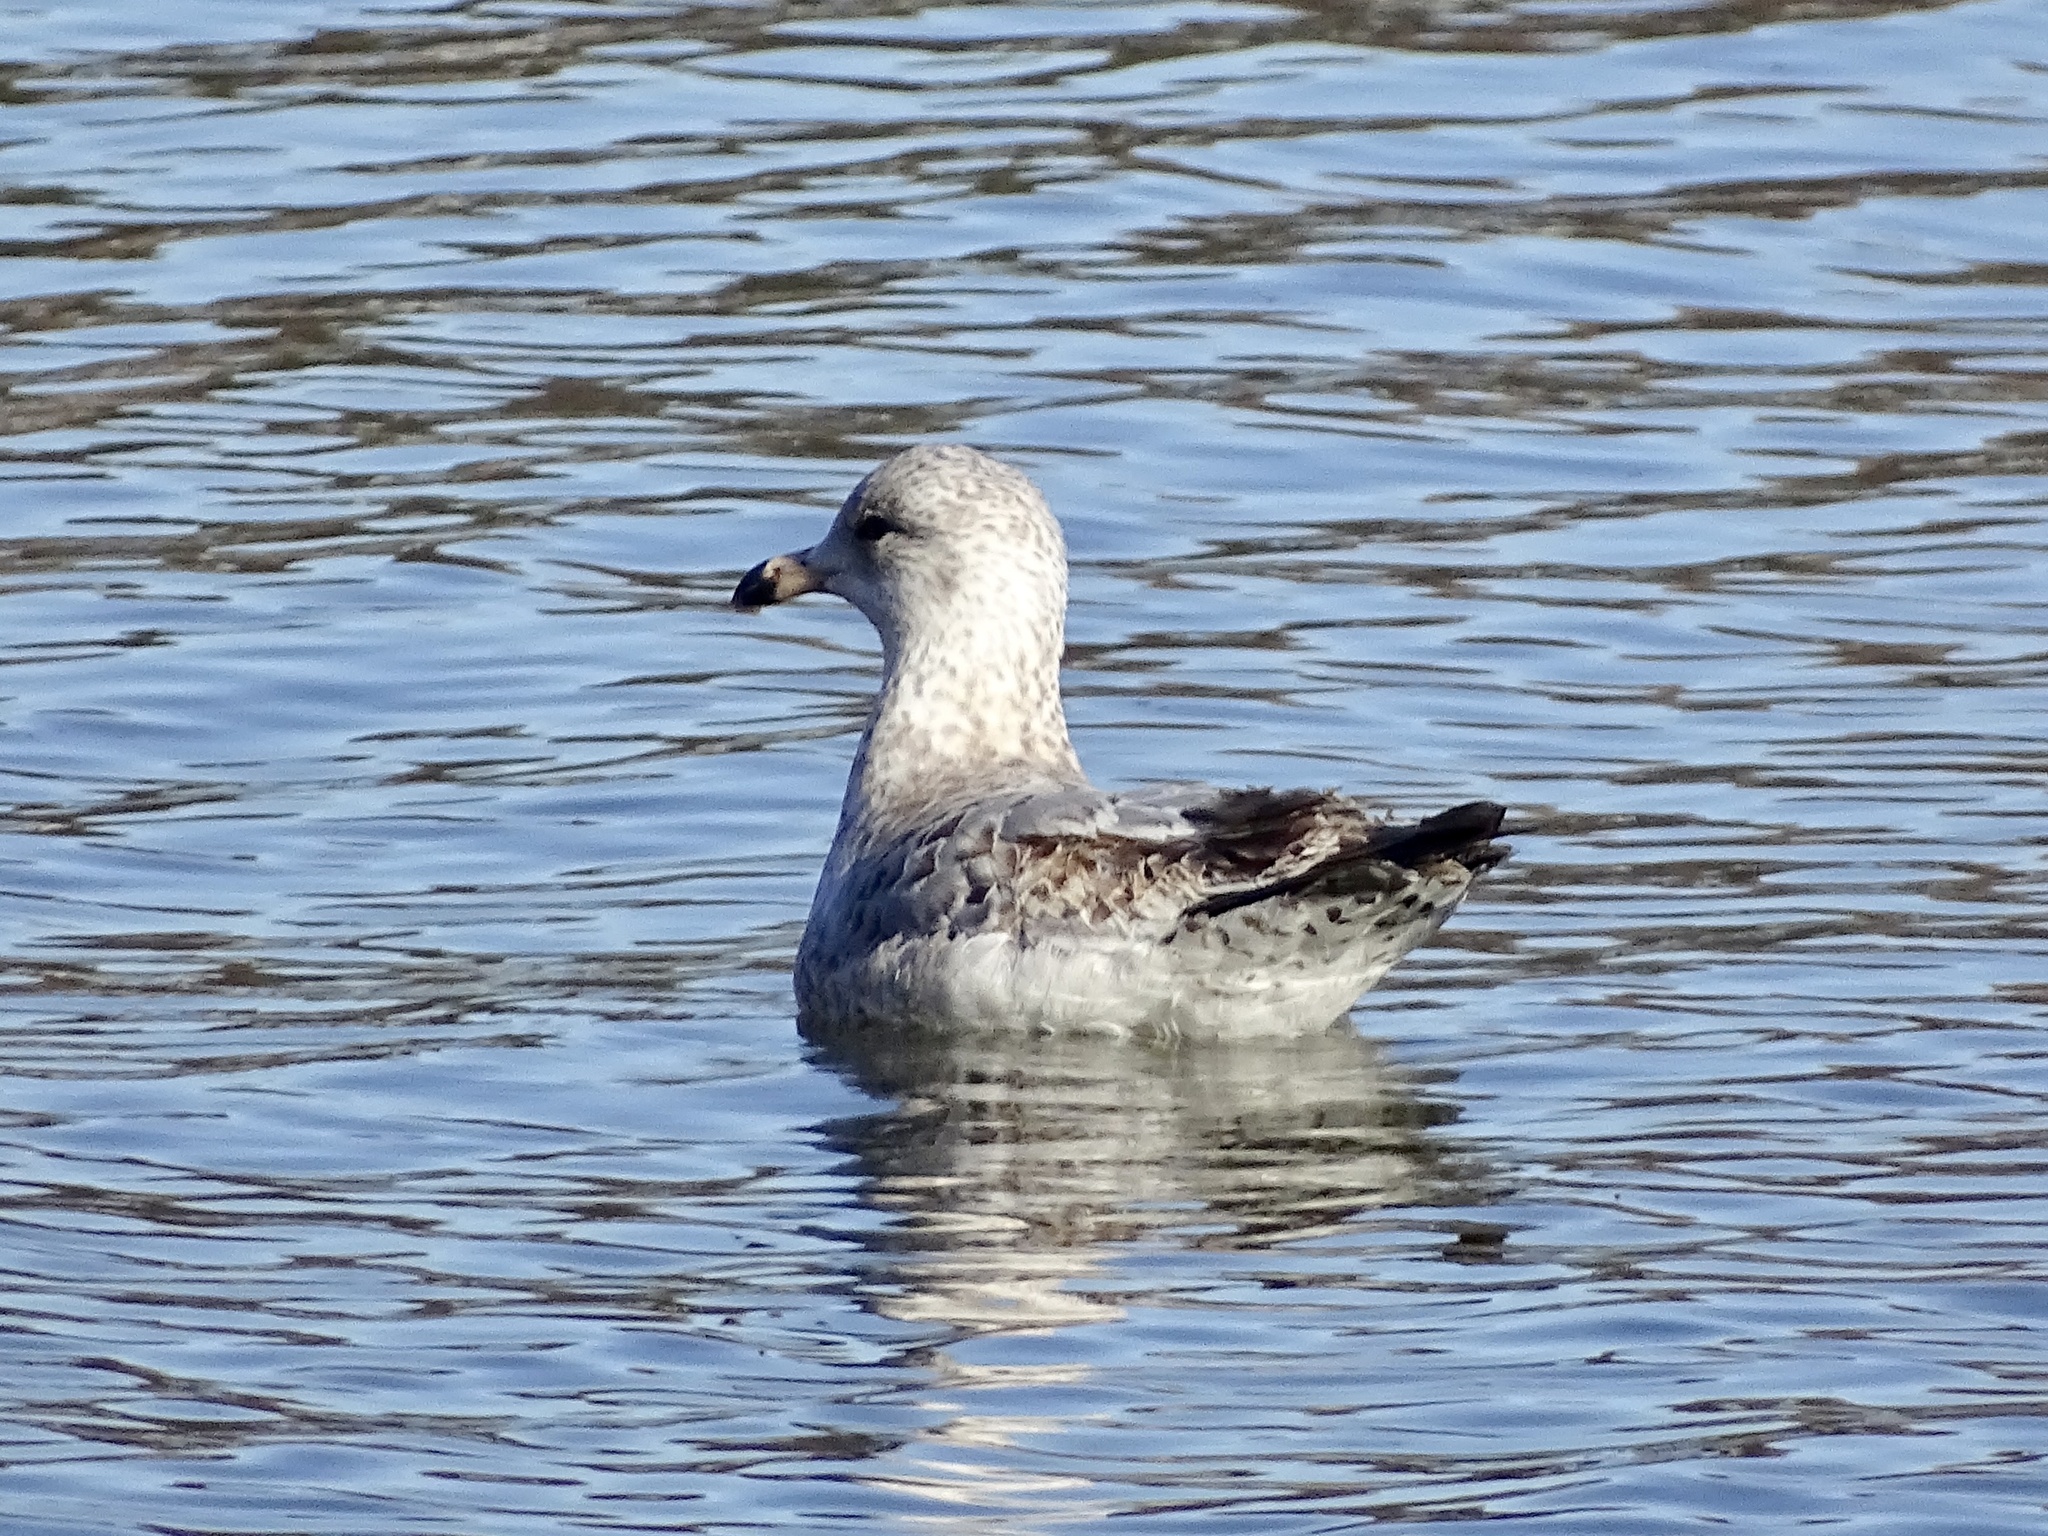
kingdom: Animalia
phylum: Chordata
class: Aves
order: Charadriiformes
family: Laridae
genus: Larus
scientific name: Larus delawarensis
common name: Ring-billed gull
